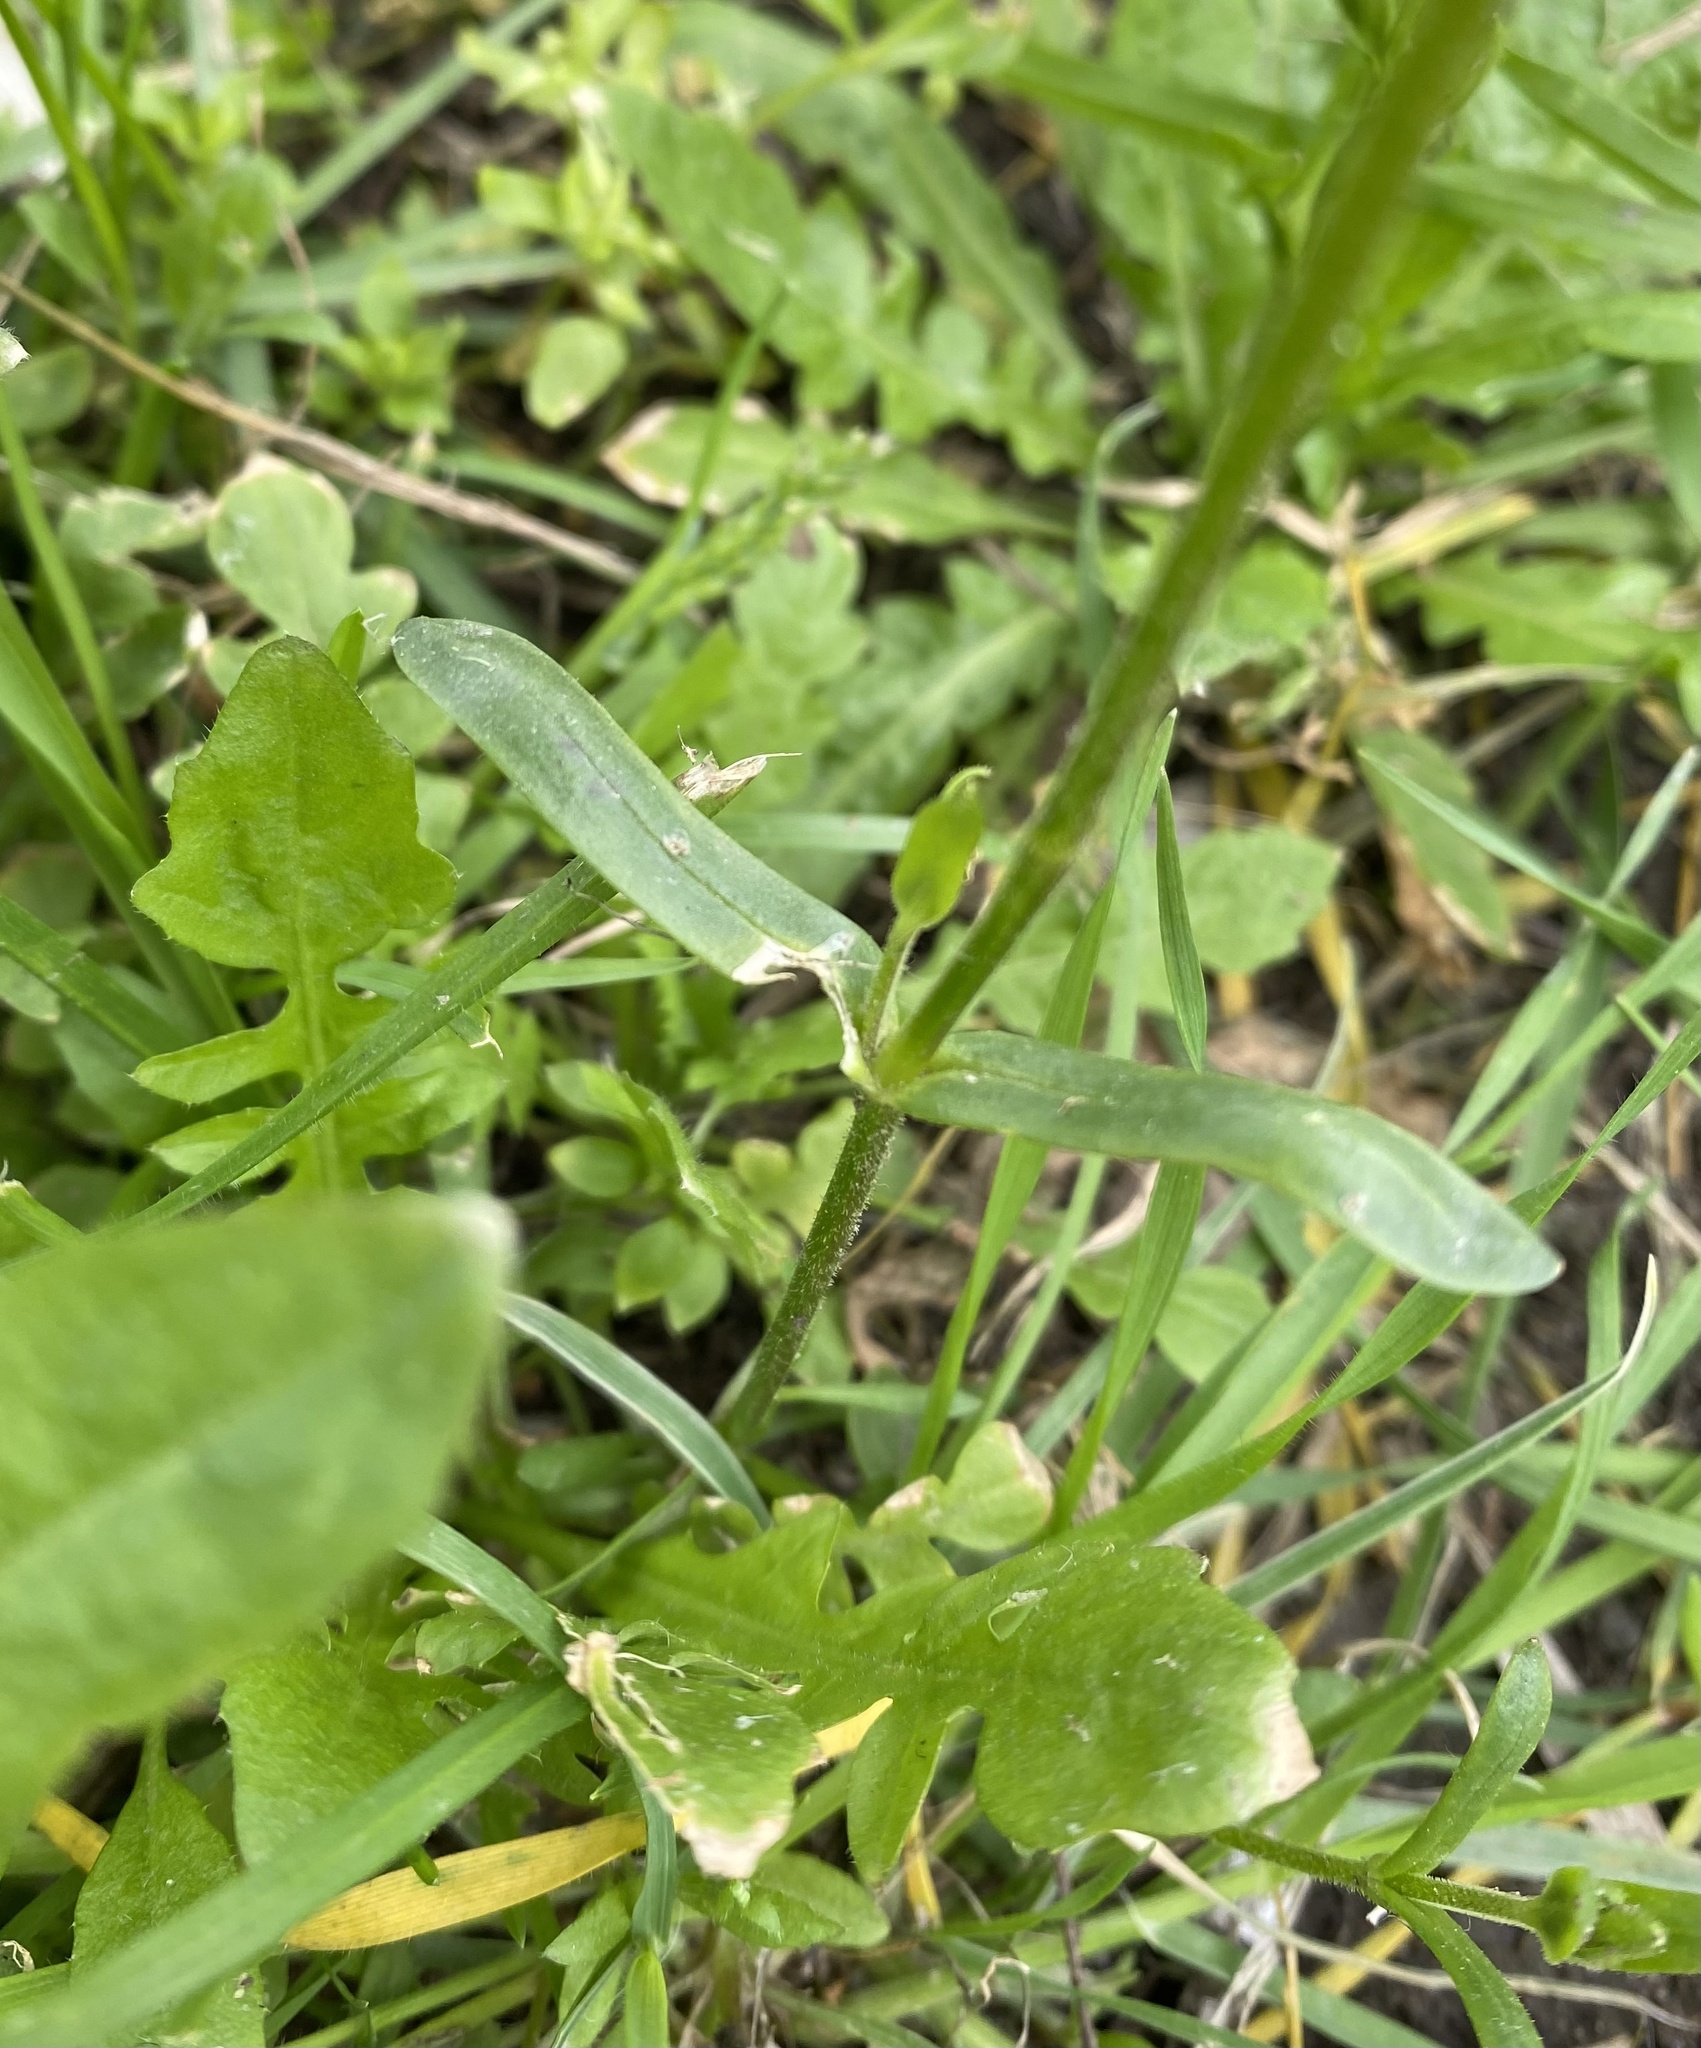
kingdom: Plantae
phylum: Tracheophyta
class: Magnoliopsida
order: Caryophyllales
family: Caryophyllaceae
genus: Dichodon
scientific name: Dichodon viscidum
